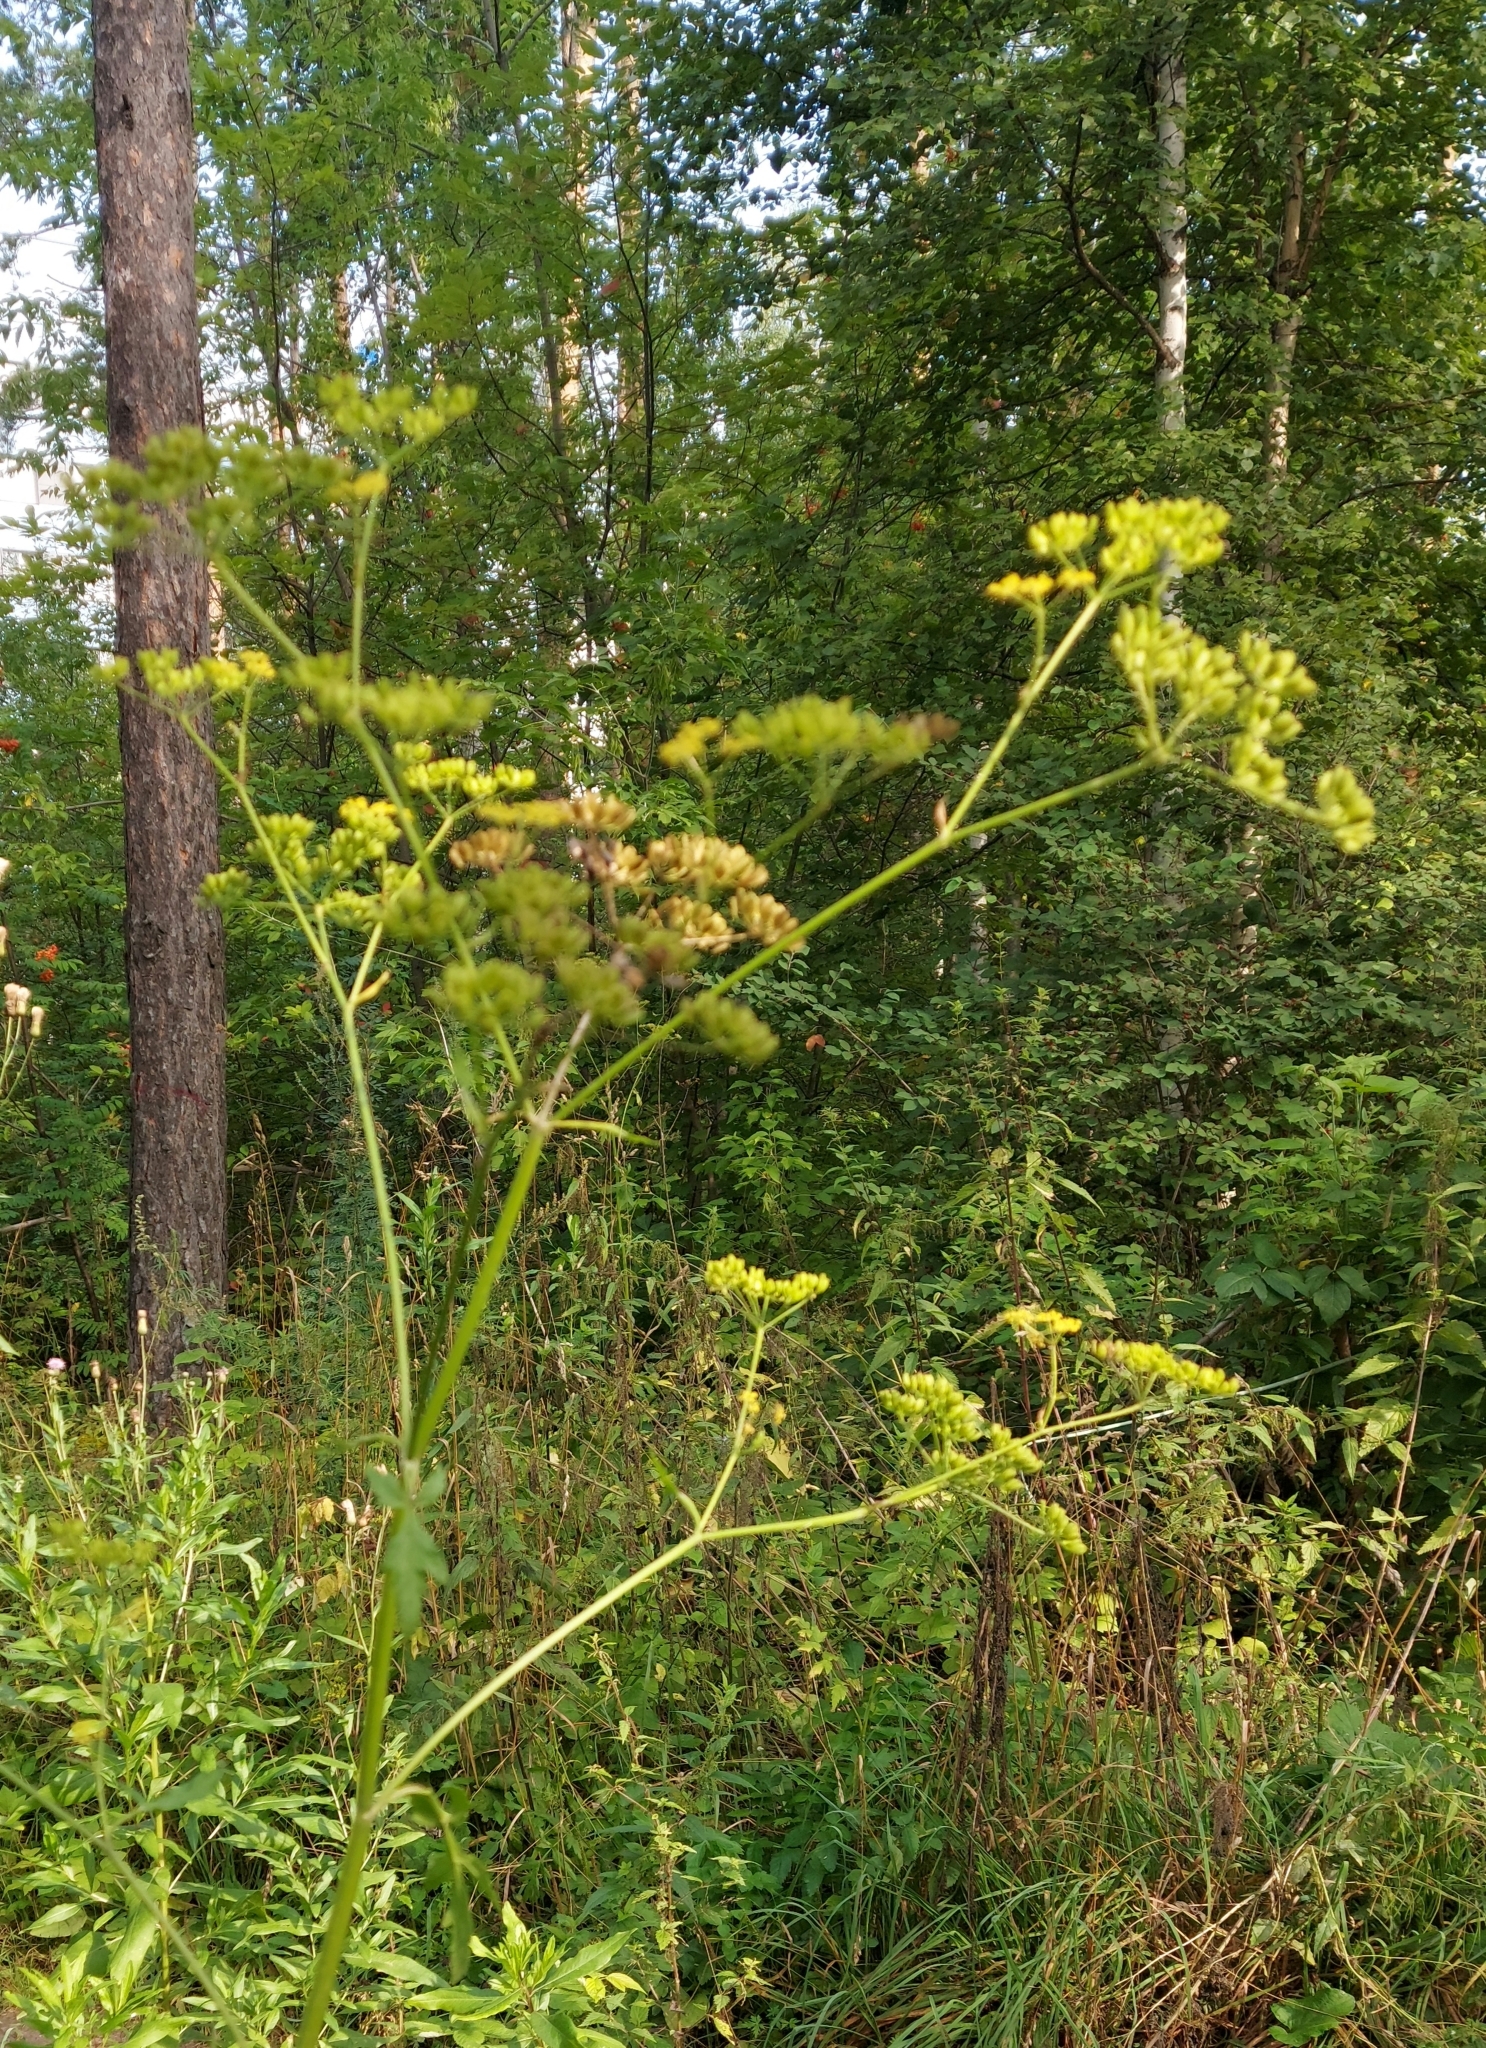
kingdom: Plantae
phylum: Tracheophyta
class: Magnoliopsida
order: Apiales
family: Apiaceae
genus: Pastinaca
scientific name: Pastinaca sativa
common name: Wild parsnip
